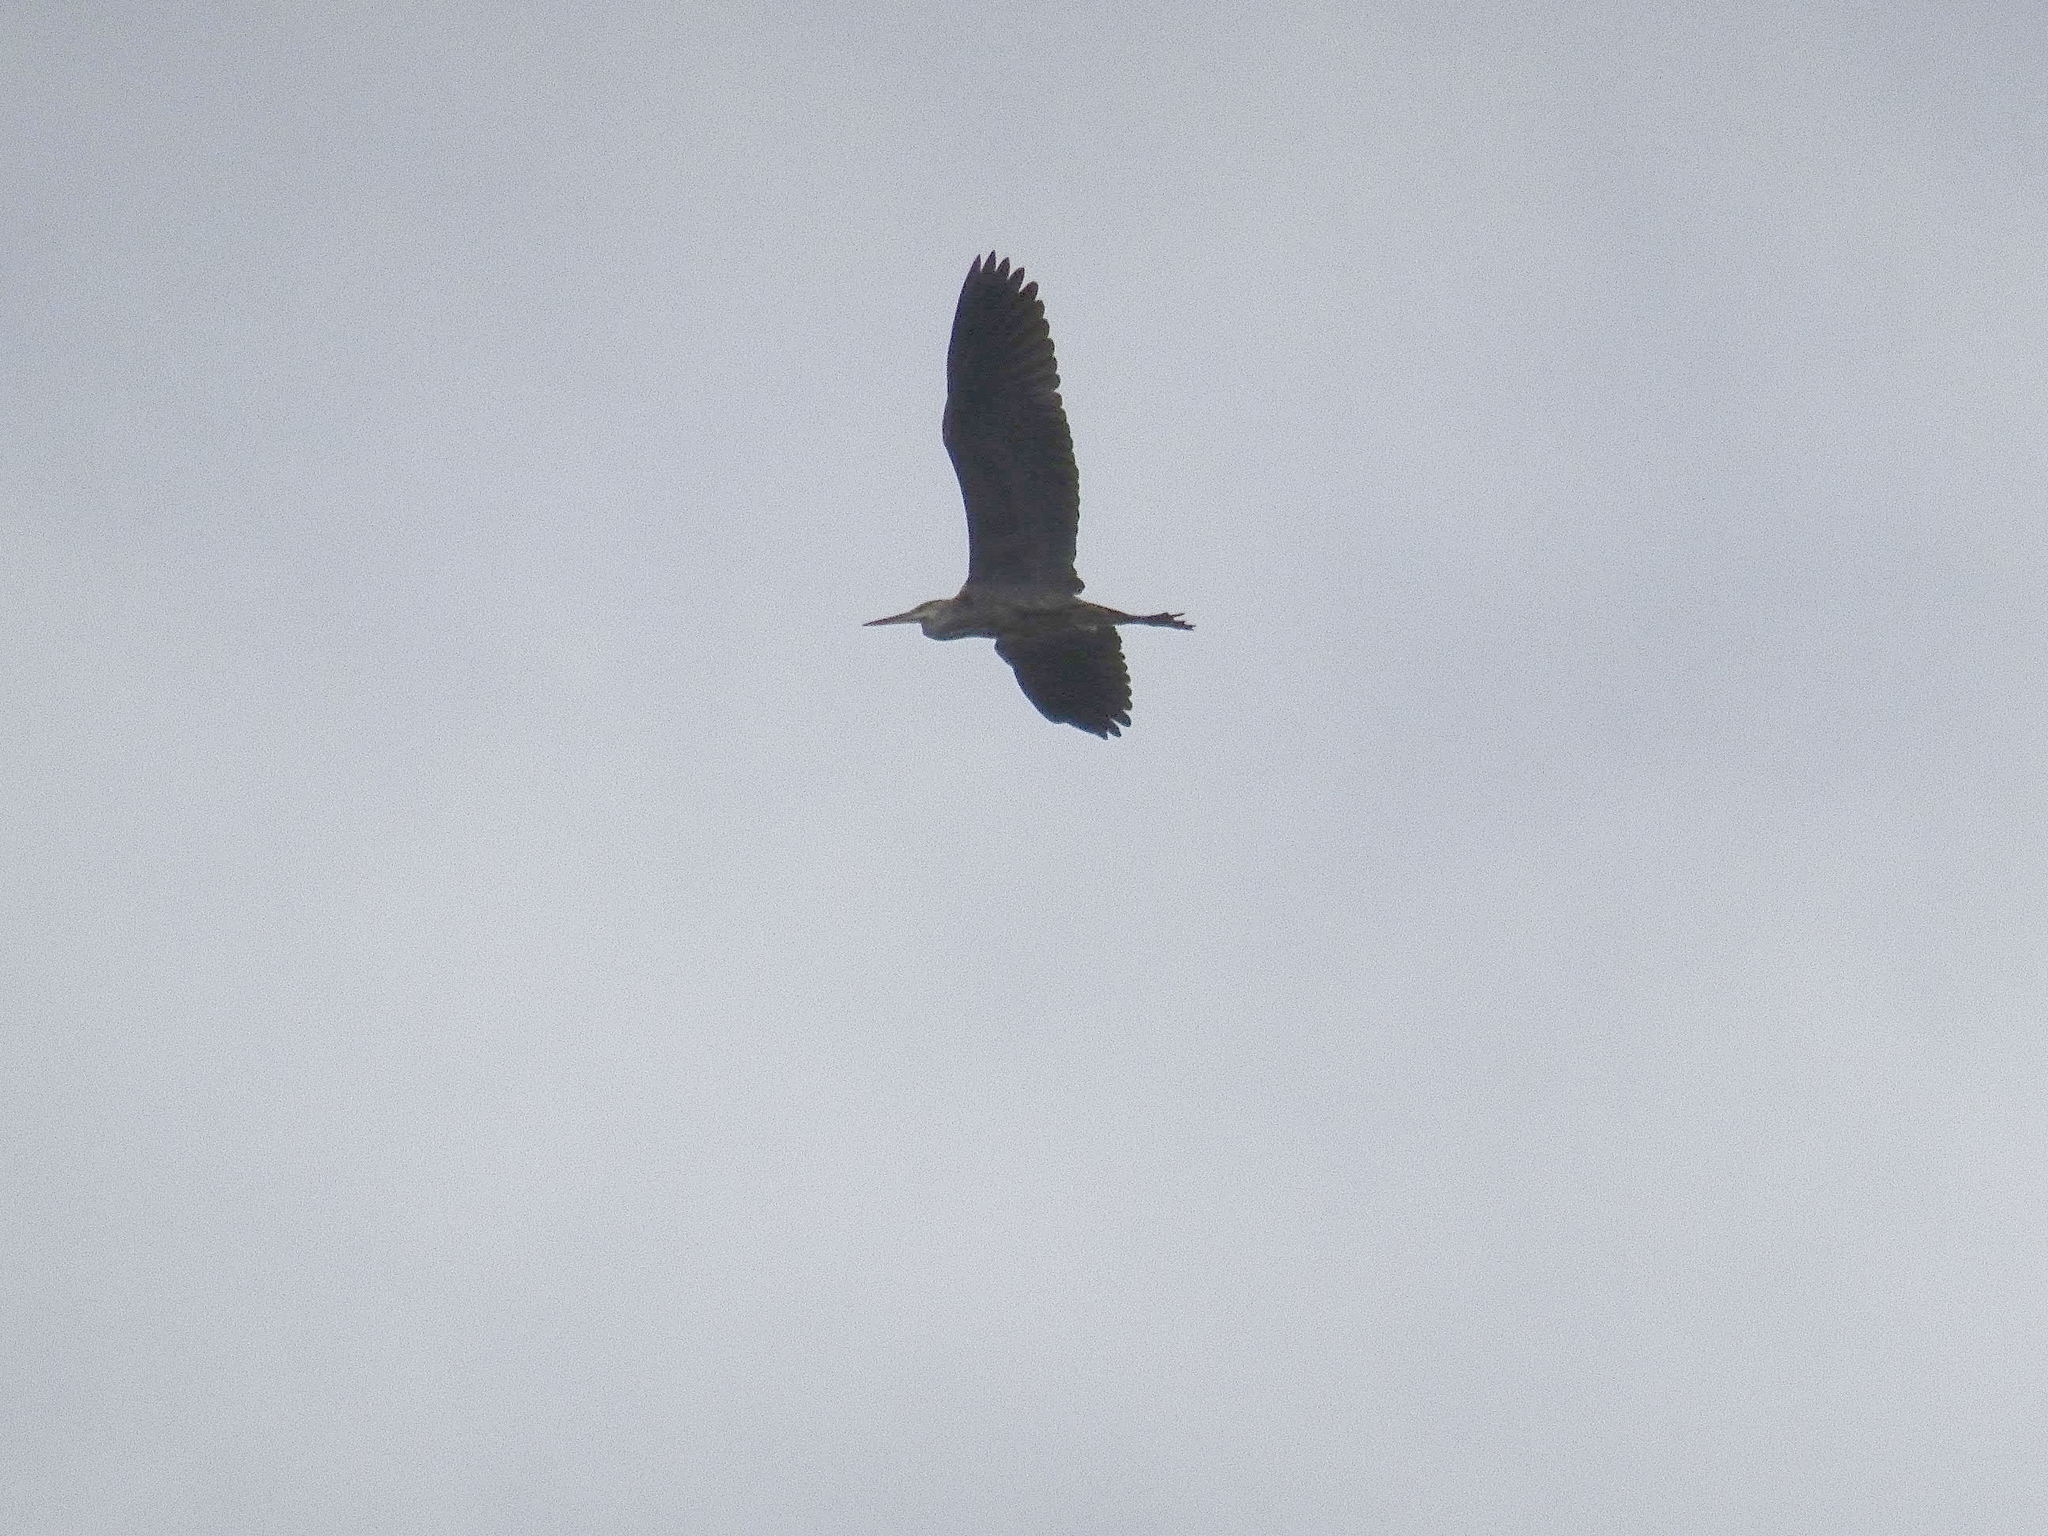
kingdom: Animalia
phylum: Chordata
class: Aves
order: Pelecaniformes
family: Ardeidae
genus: Ardea
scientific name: Ardea cinerea
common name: Grey heron
